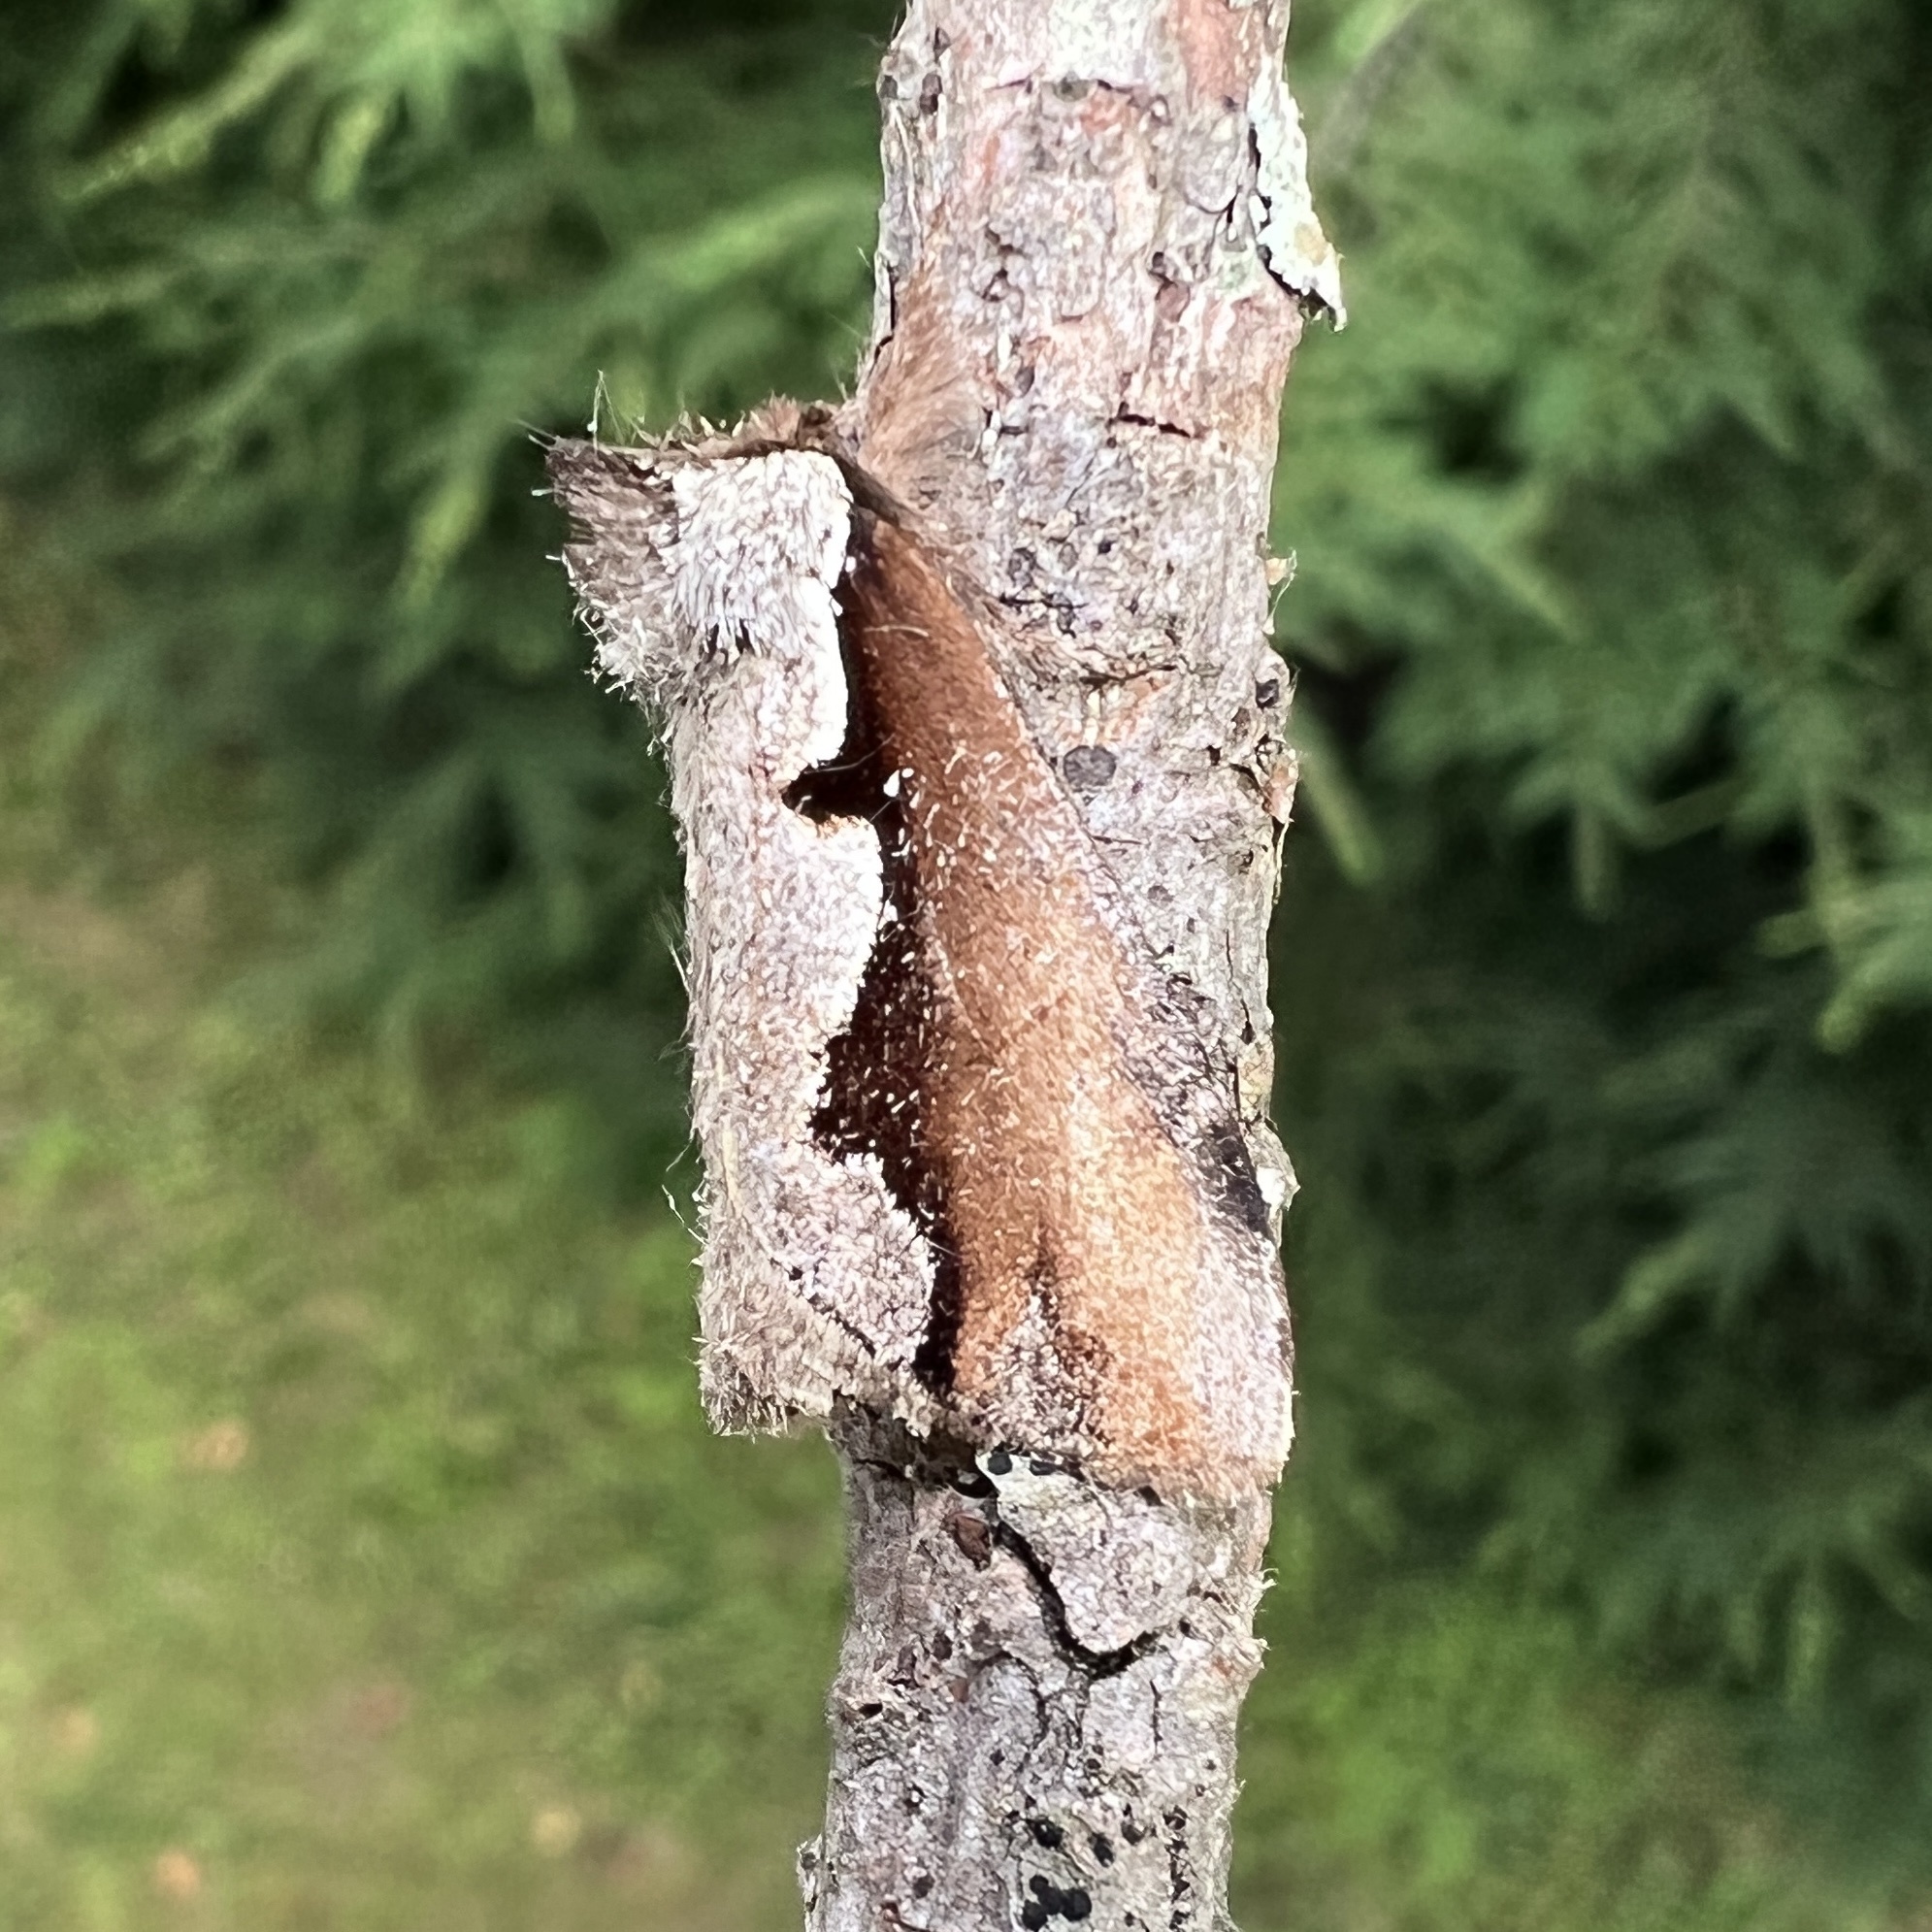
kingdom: Animalia
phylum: Arthropoda
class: Insecta
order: Lepidoptera
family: Notodontidae
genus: Nerice
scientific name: Nerice bidentata
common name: Double-toothed prominent
